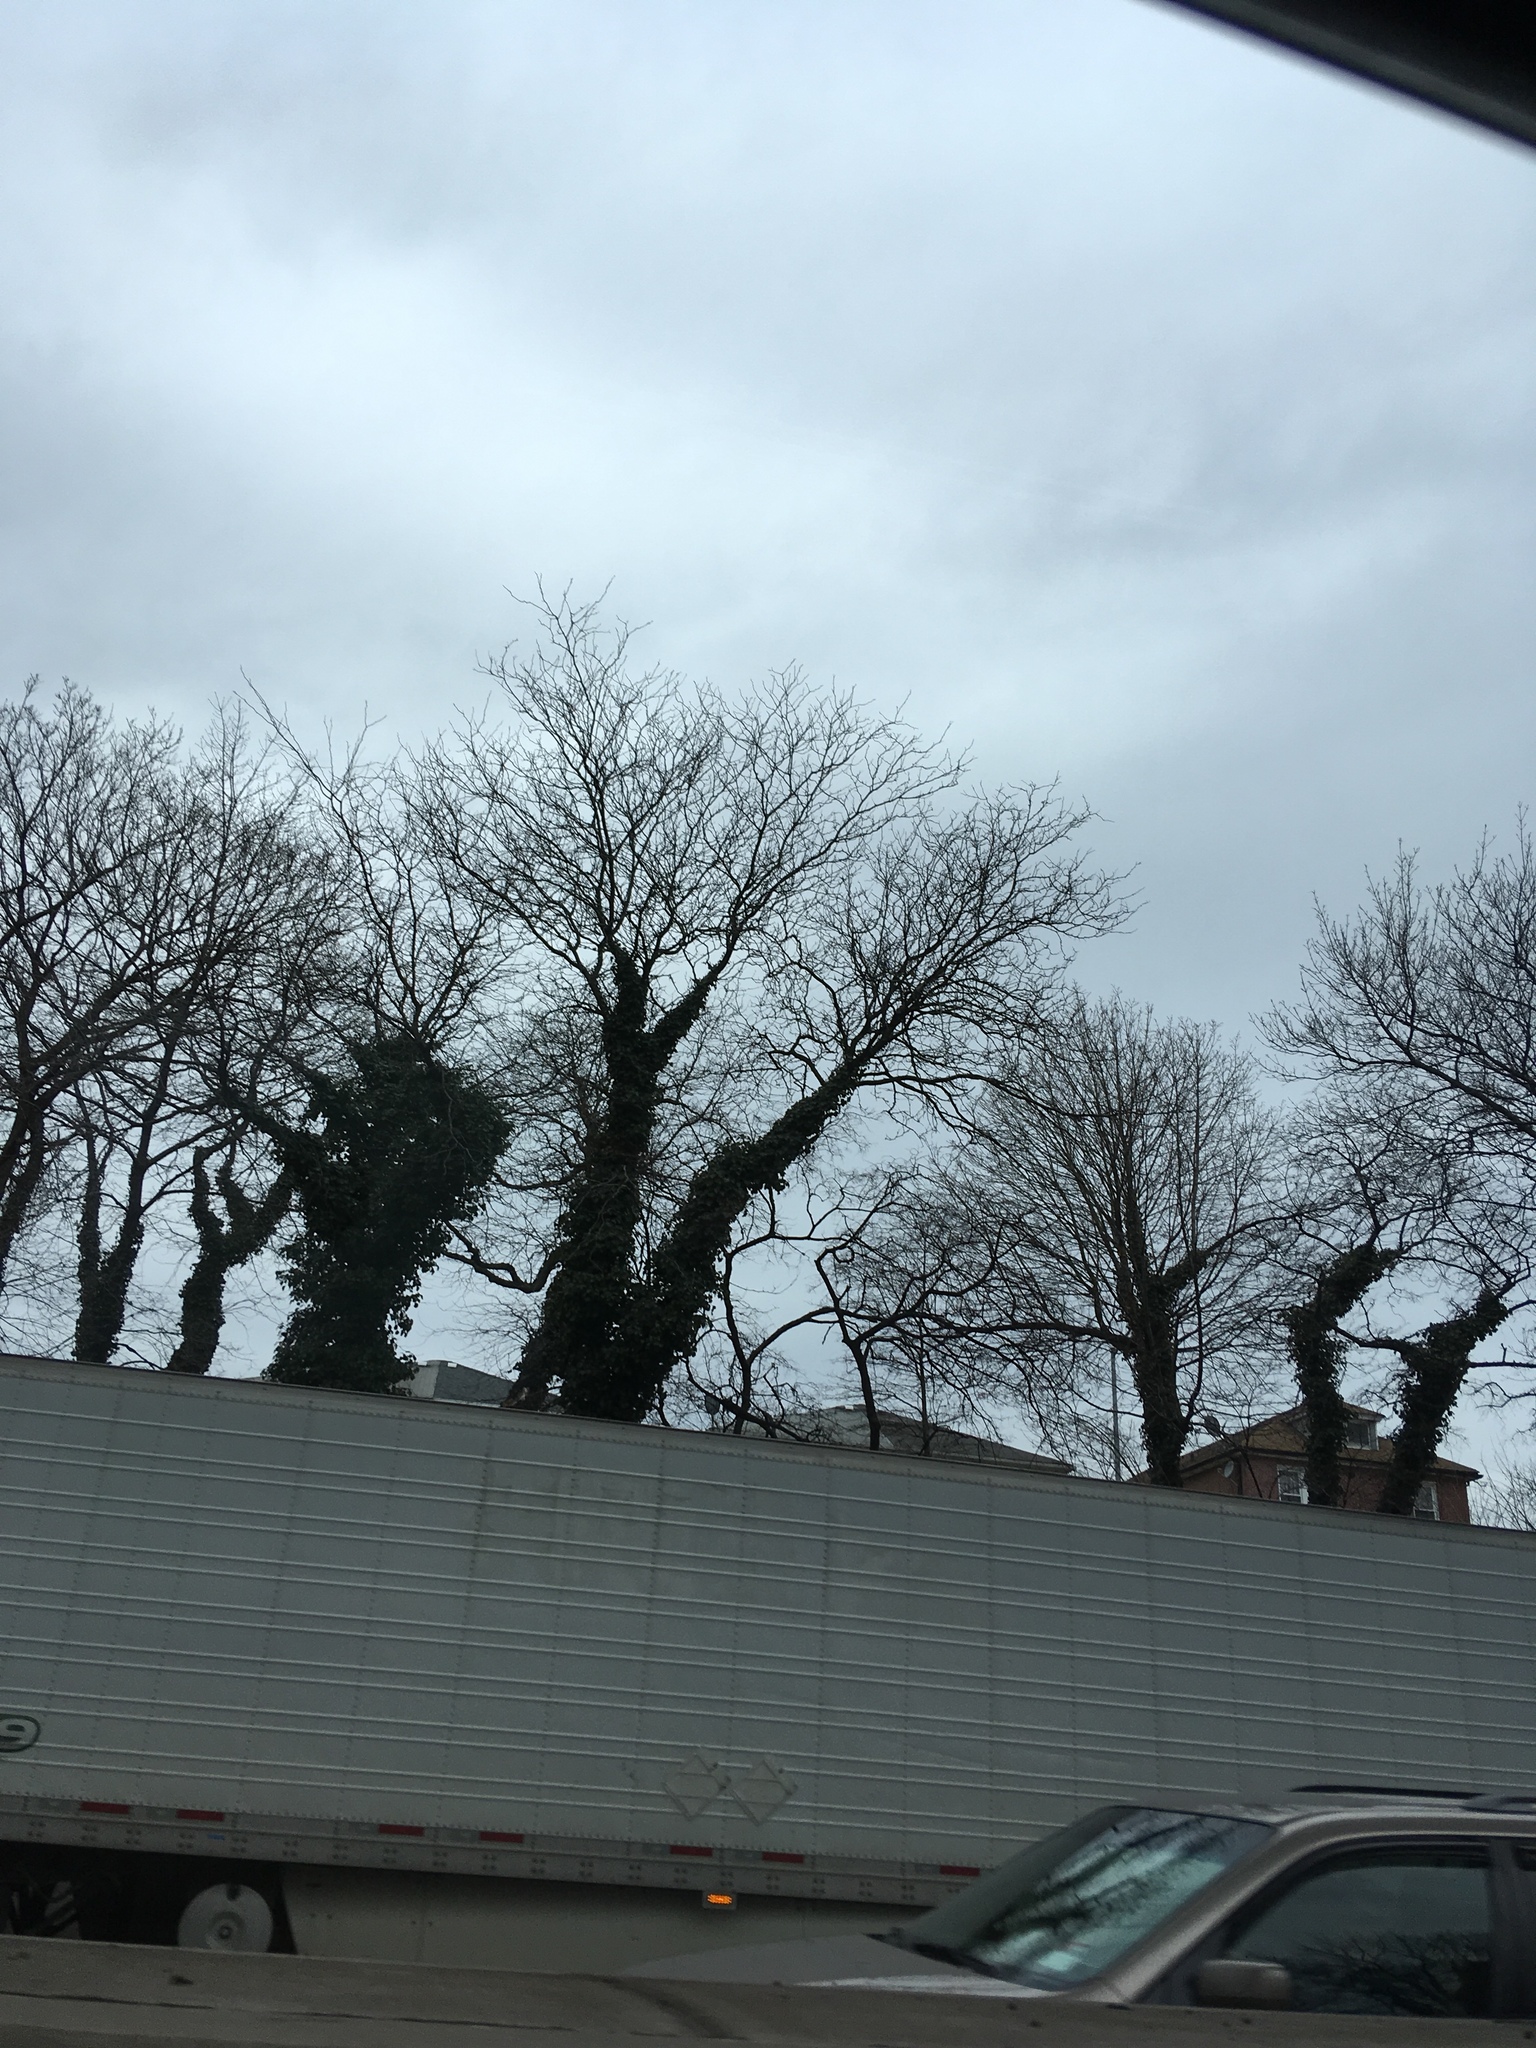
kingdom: Plantae
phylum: Tracheophyta
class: Magnoliopsida
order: Apiales
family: Araliaceae
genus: Hedera
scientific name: Hedera helix
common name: Ivy
